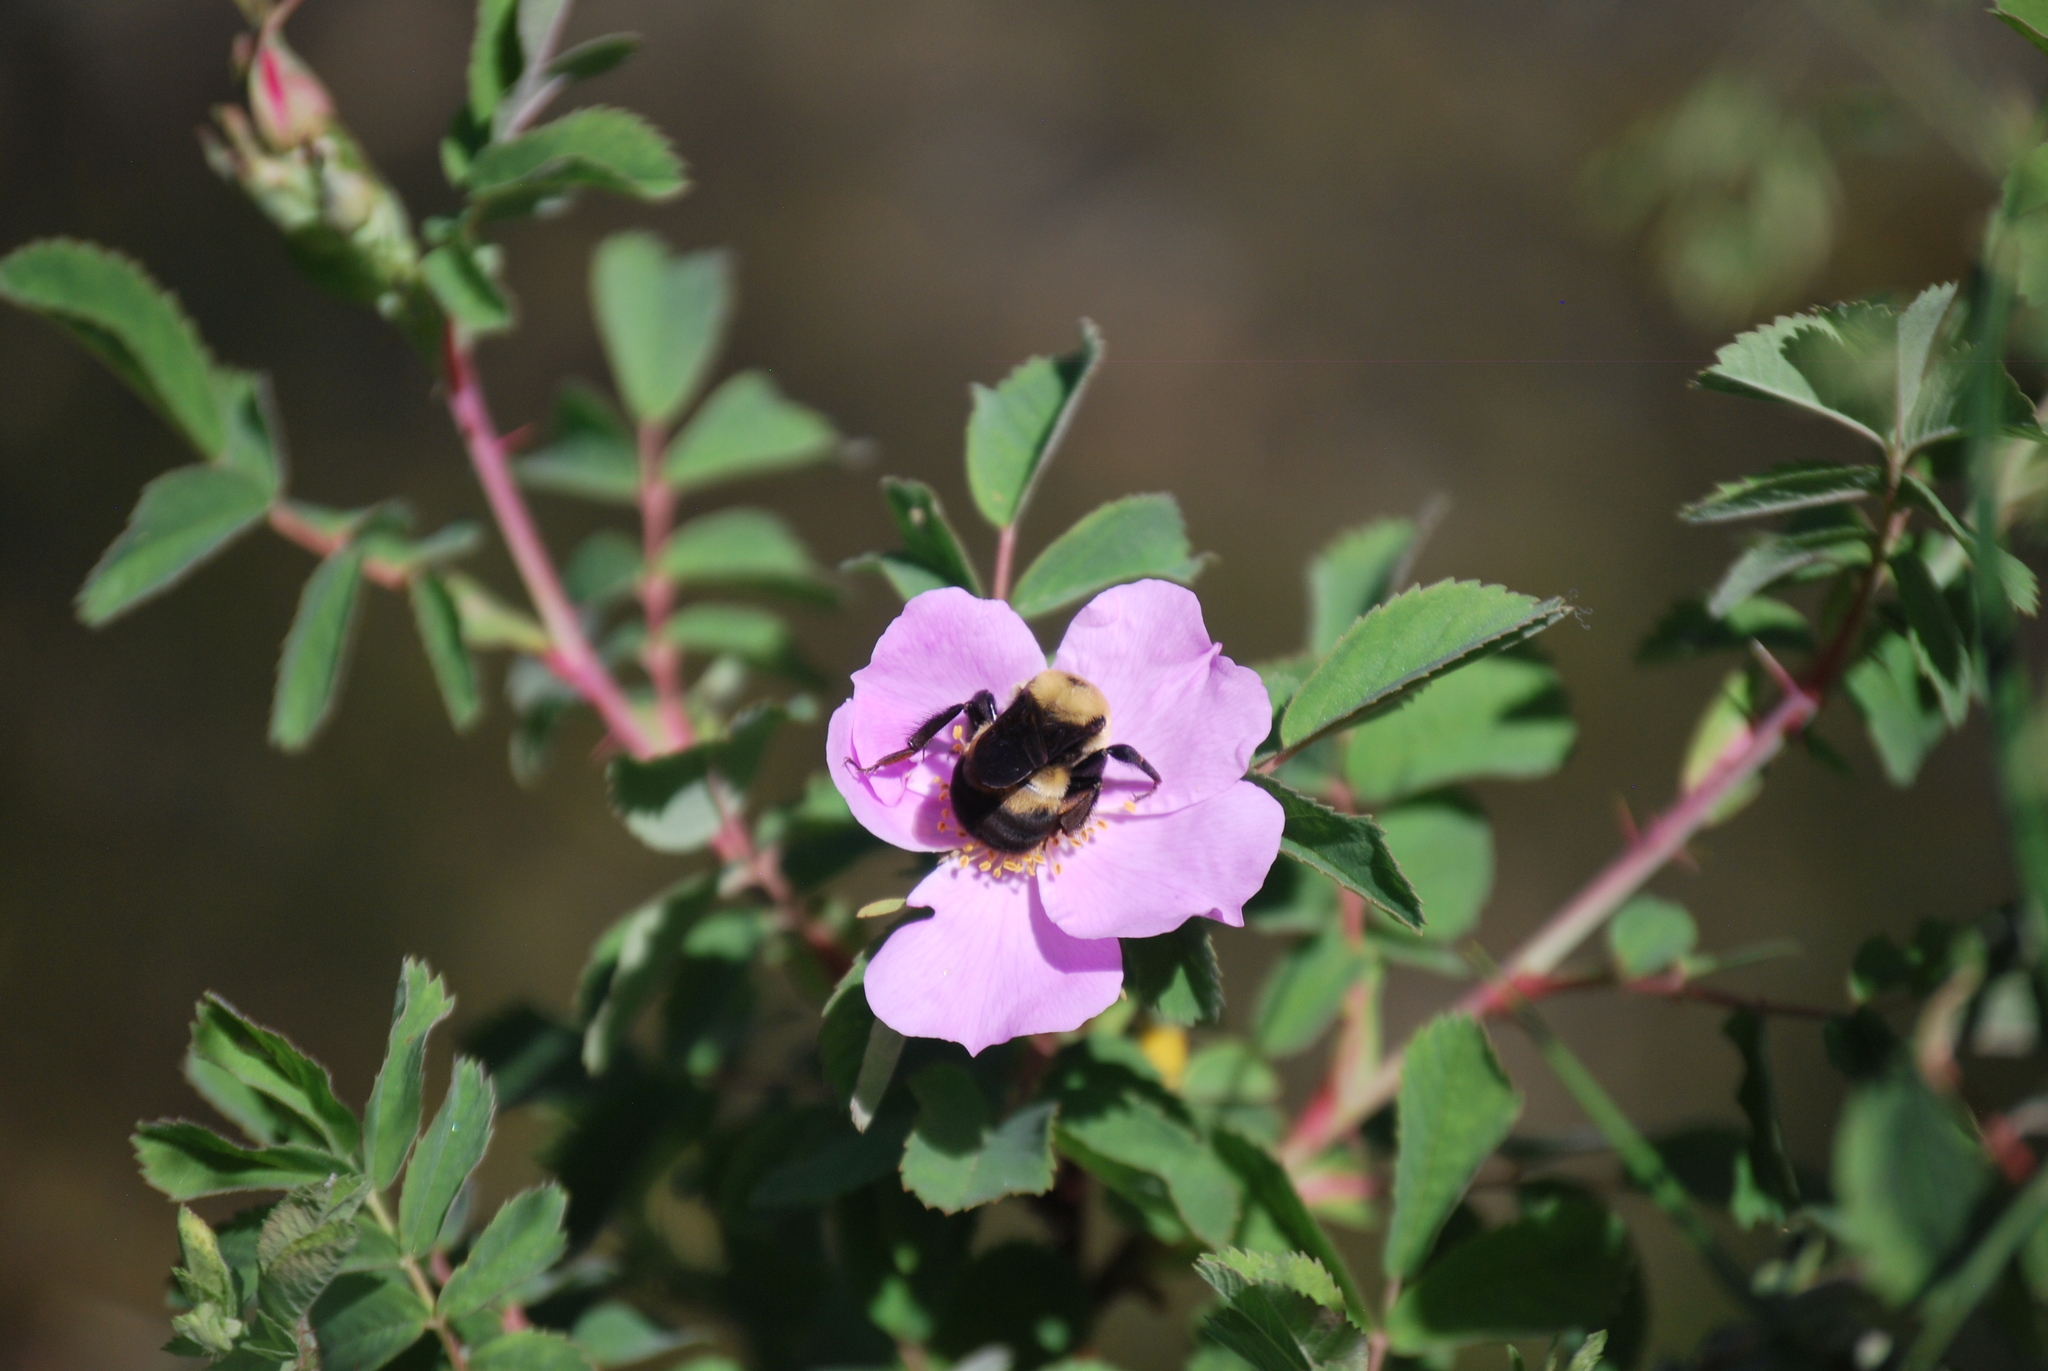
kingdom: Animalia
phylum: Arthropoda
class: Insecta
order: Hymenoptera
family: Apidae
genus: Bombus
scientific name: Bombus griseocollis
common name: Brown-belted bumble bee
